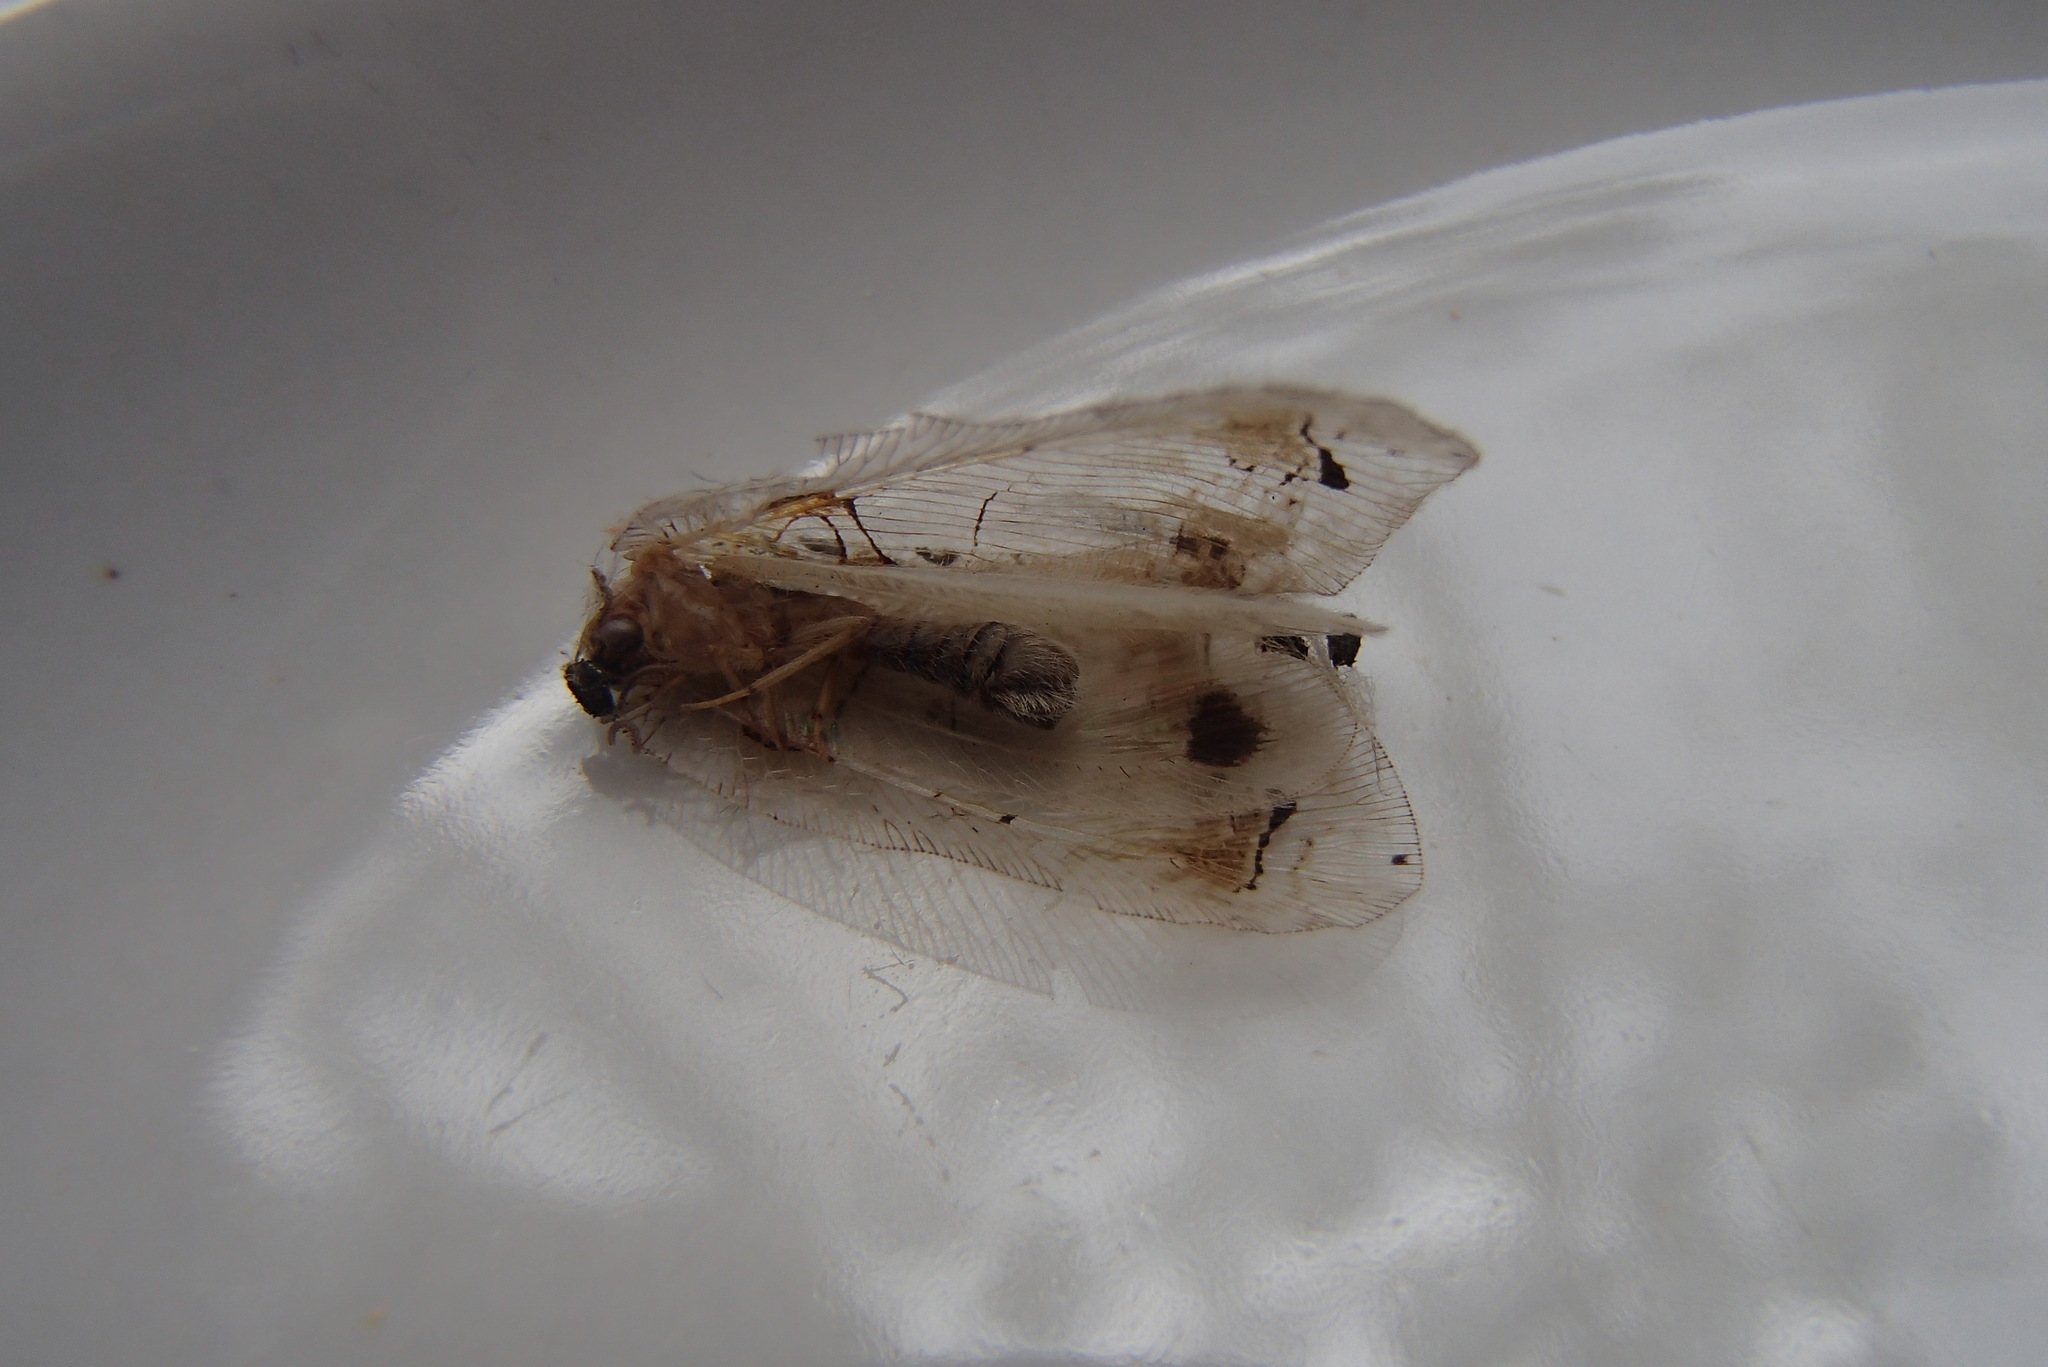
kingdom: Animalia
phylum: Arthropoda
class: Insecta
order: Neuroptera
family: Psychopsidae
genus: Psychopsis
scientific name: Psychopsis margarita
